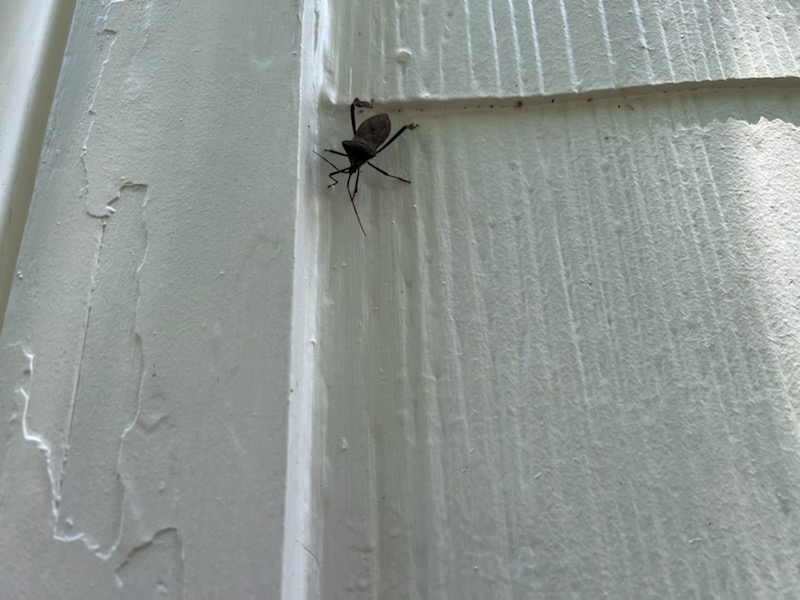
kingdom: Animalia
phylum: Arthropoda
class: Insecta
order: Hemiptera
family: Coreidae
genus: Acanthocephala
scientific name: Acanthocephala declivis
